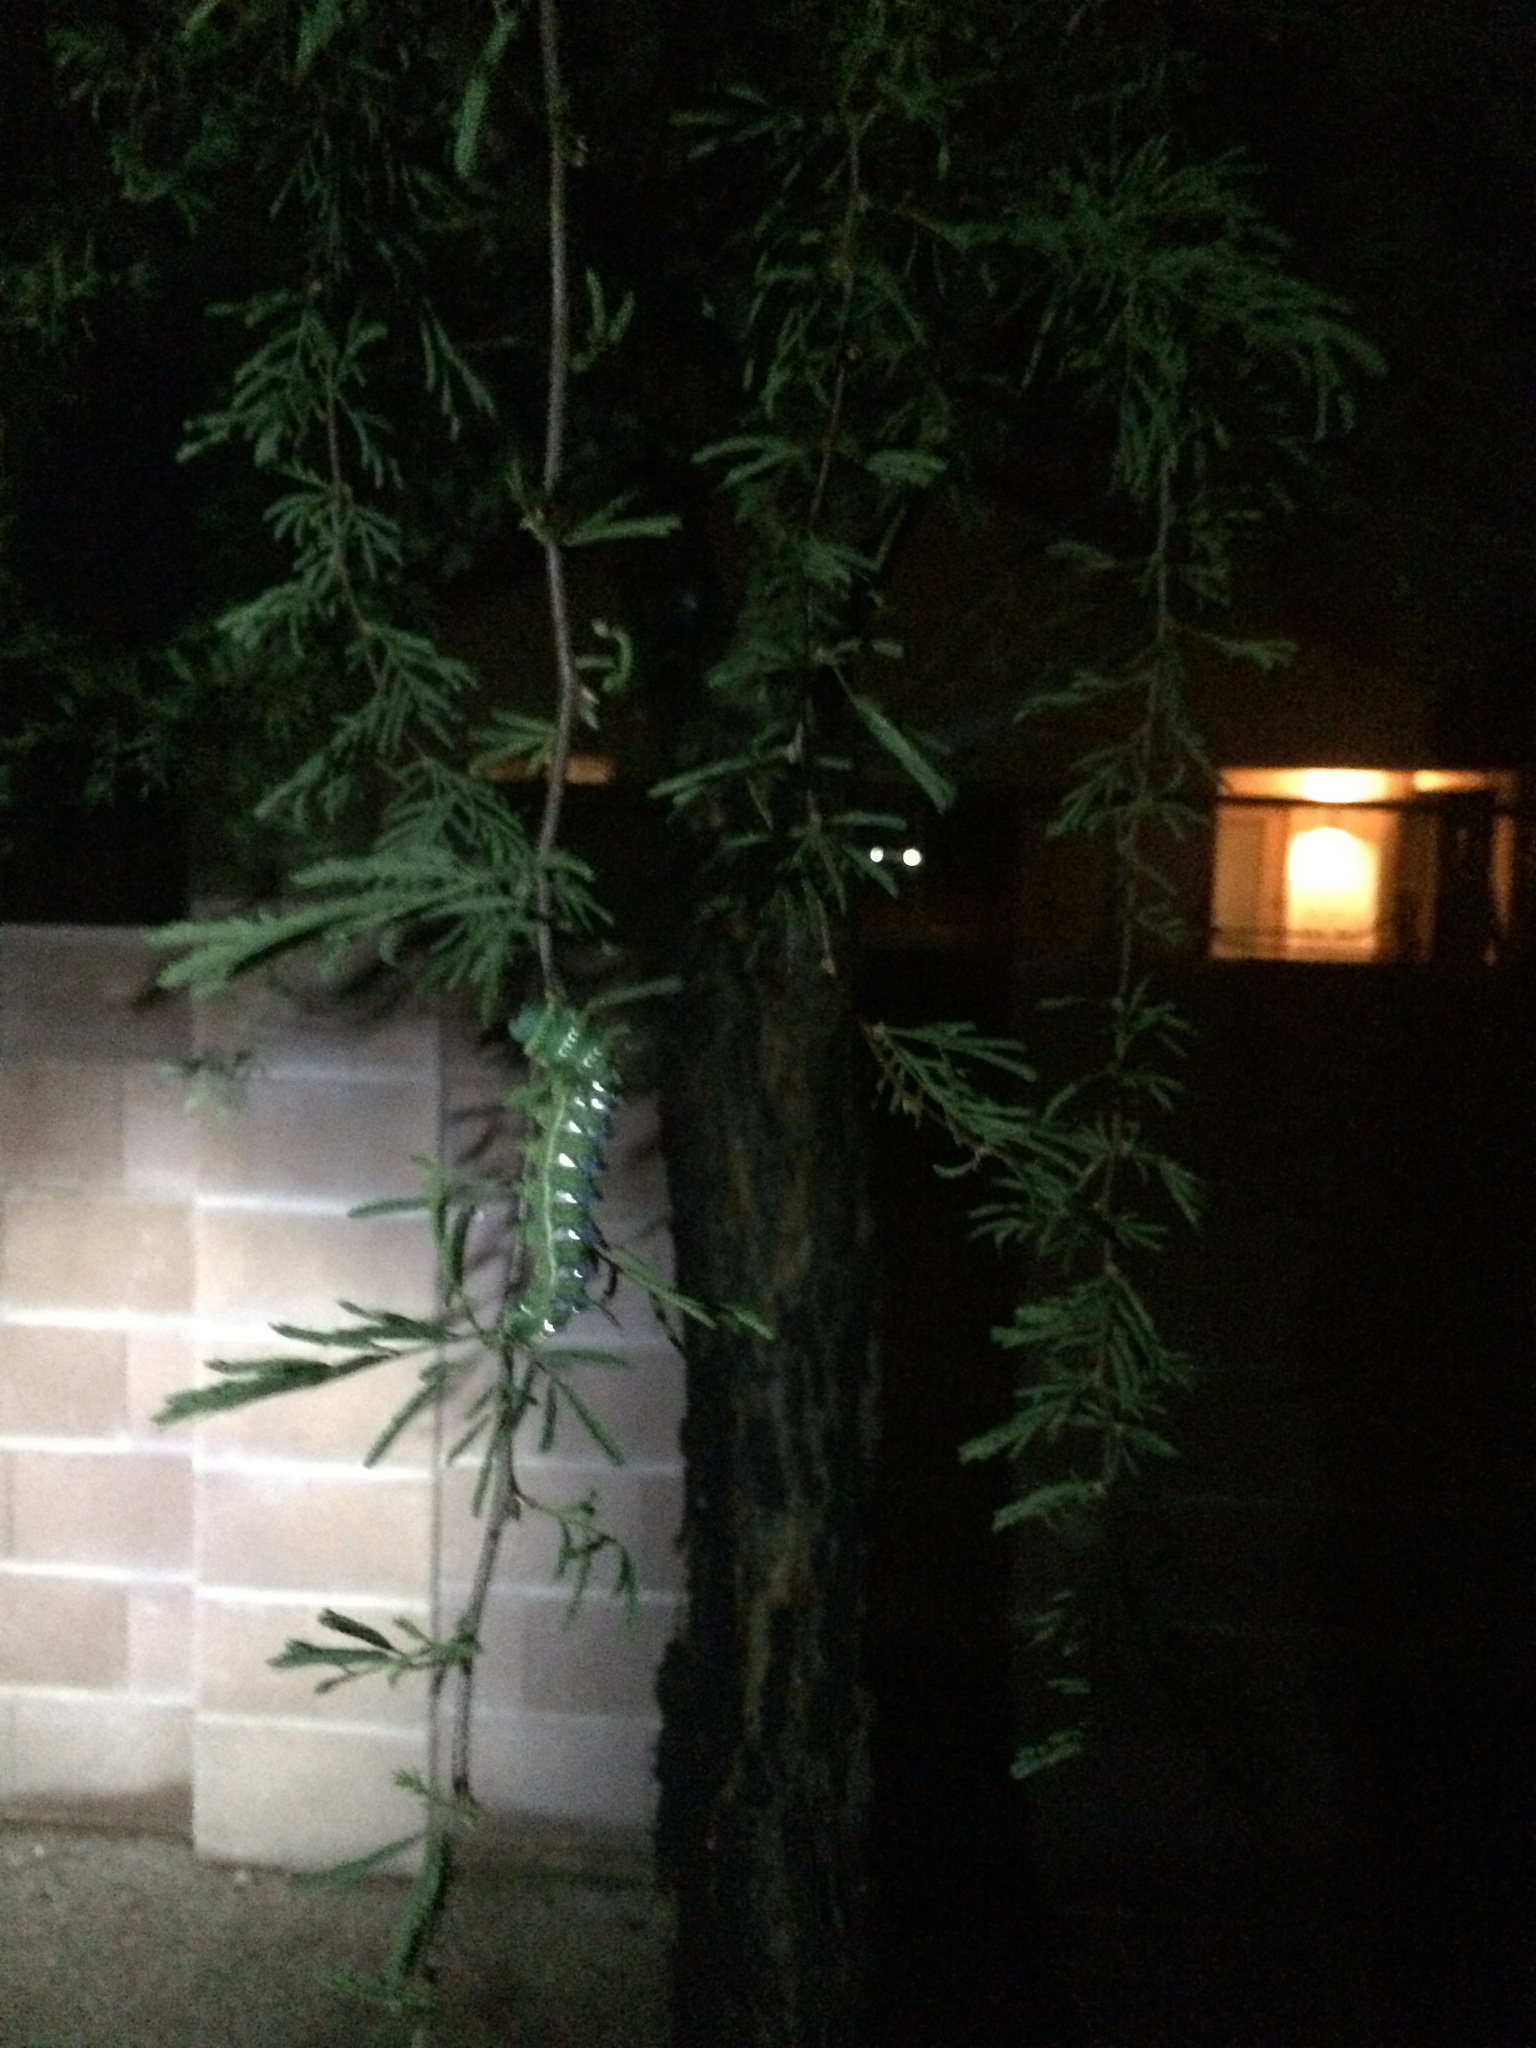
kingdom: Animalia
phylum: Arthropoda
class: Insecta
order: Lepidoptera
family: Saturniidae
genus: Syssphinx
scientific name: Syssphinx hubbardi
